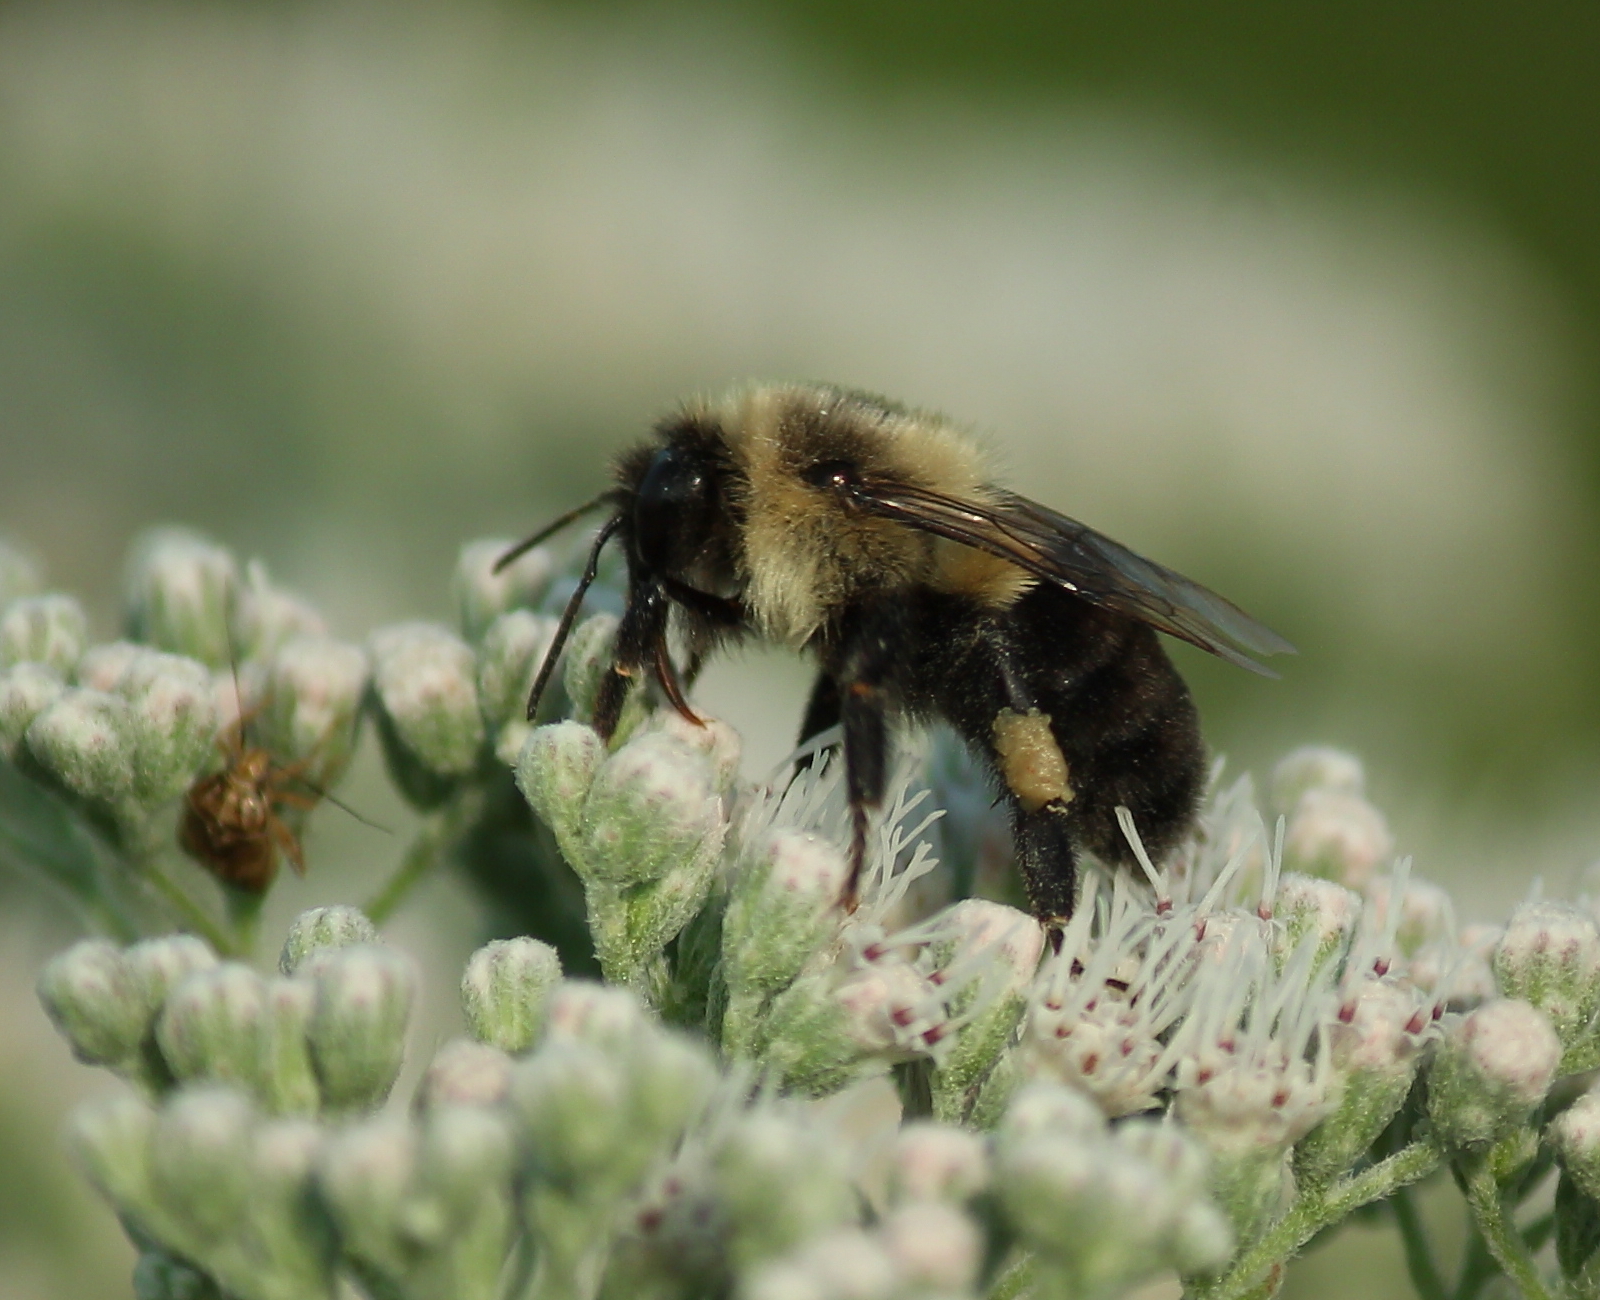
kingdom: Animalia
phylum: Arthropoda
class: Insecta
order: Hymenoptera
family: Apidae
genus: Bombus
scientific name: Bombus impatiens
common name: Common eastern bumble bee
